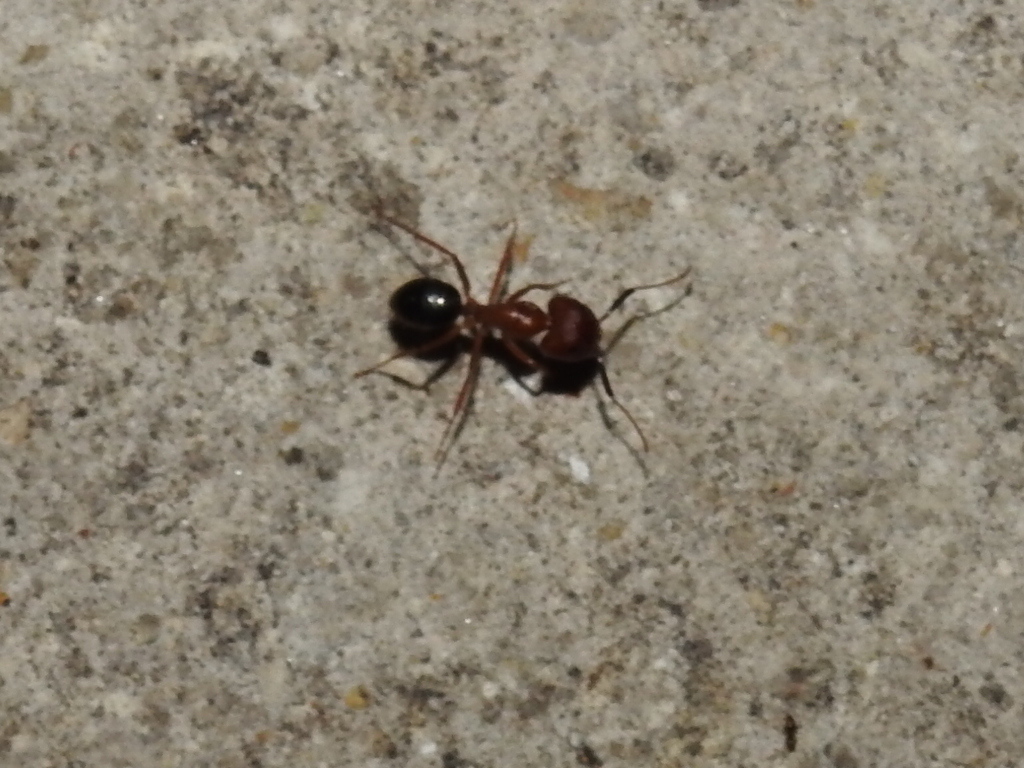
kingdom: Animalia
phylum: Arthropoda
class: Insecta
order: Hymenoptera
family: Formicidae
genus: Camponotus
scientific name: Camponotus floridanus
